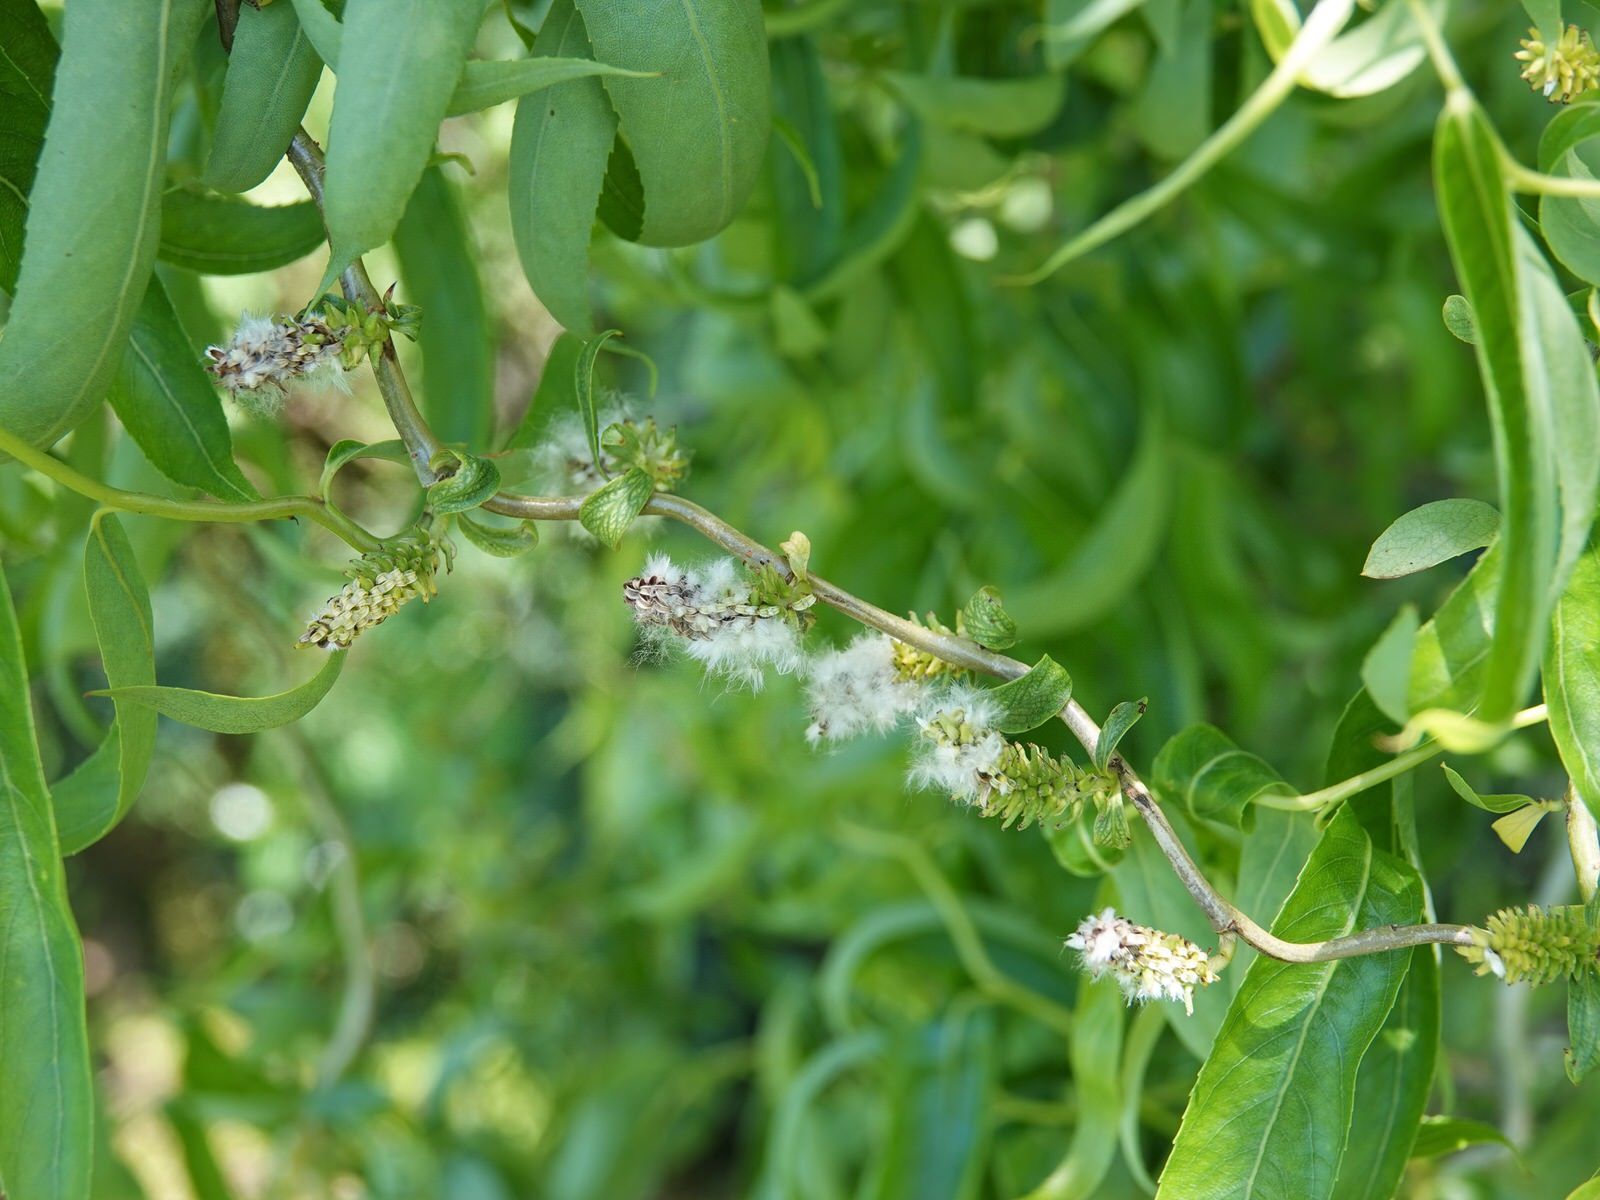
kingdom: Plantae
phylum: Tracheophyta
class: Magnoliopsida
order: Malpighiales
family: Salicaceae
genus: Salix
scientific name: Salix
